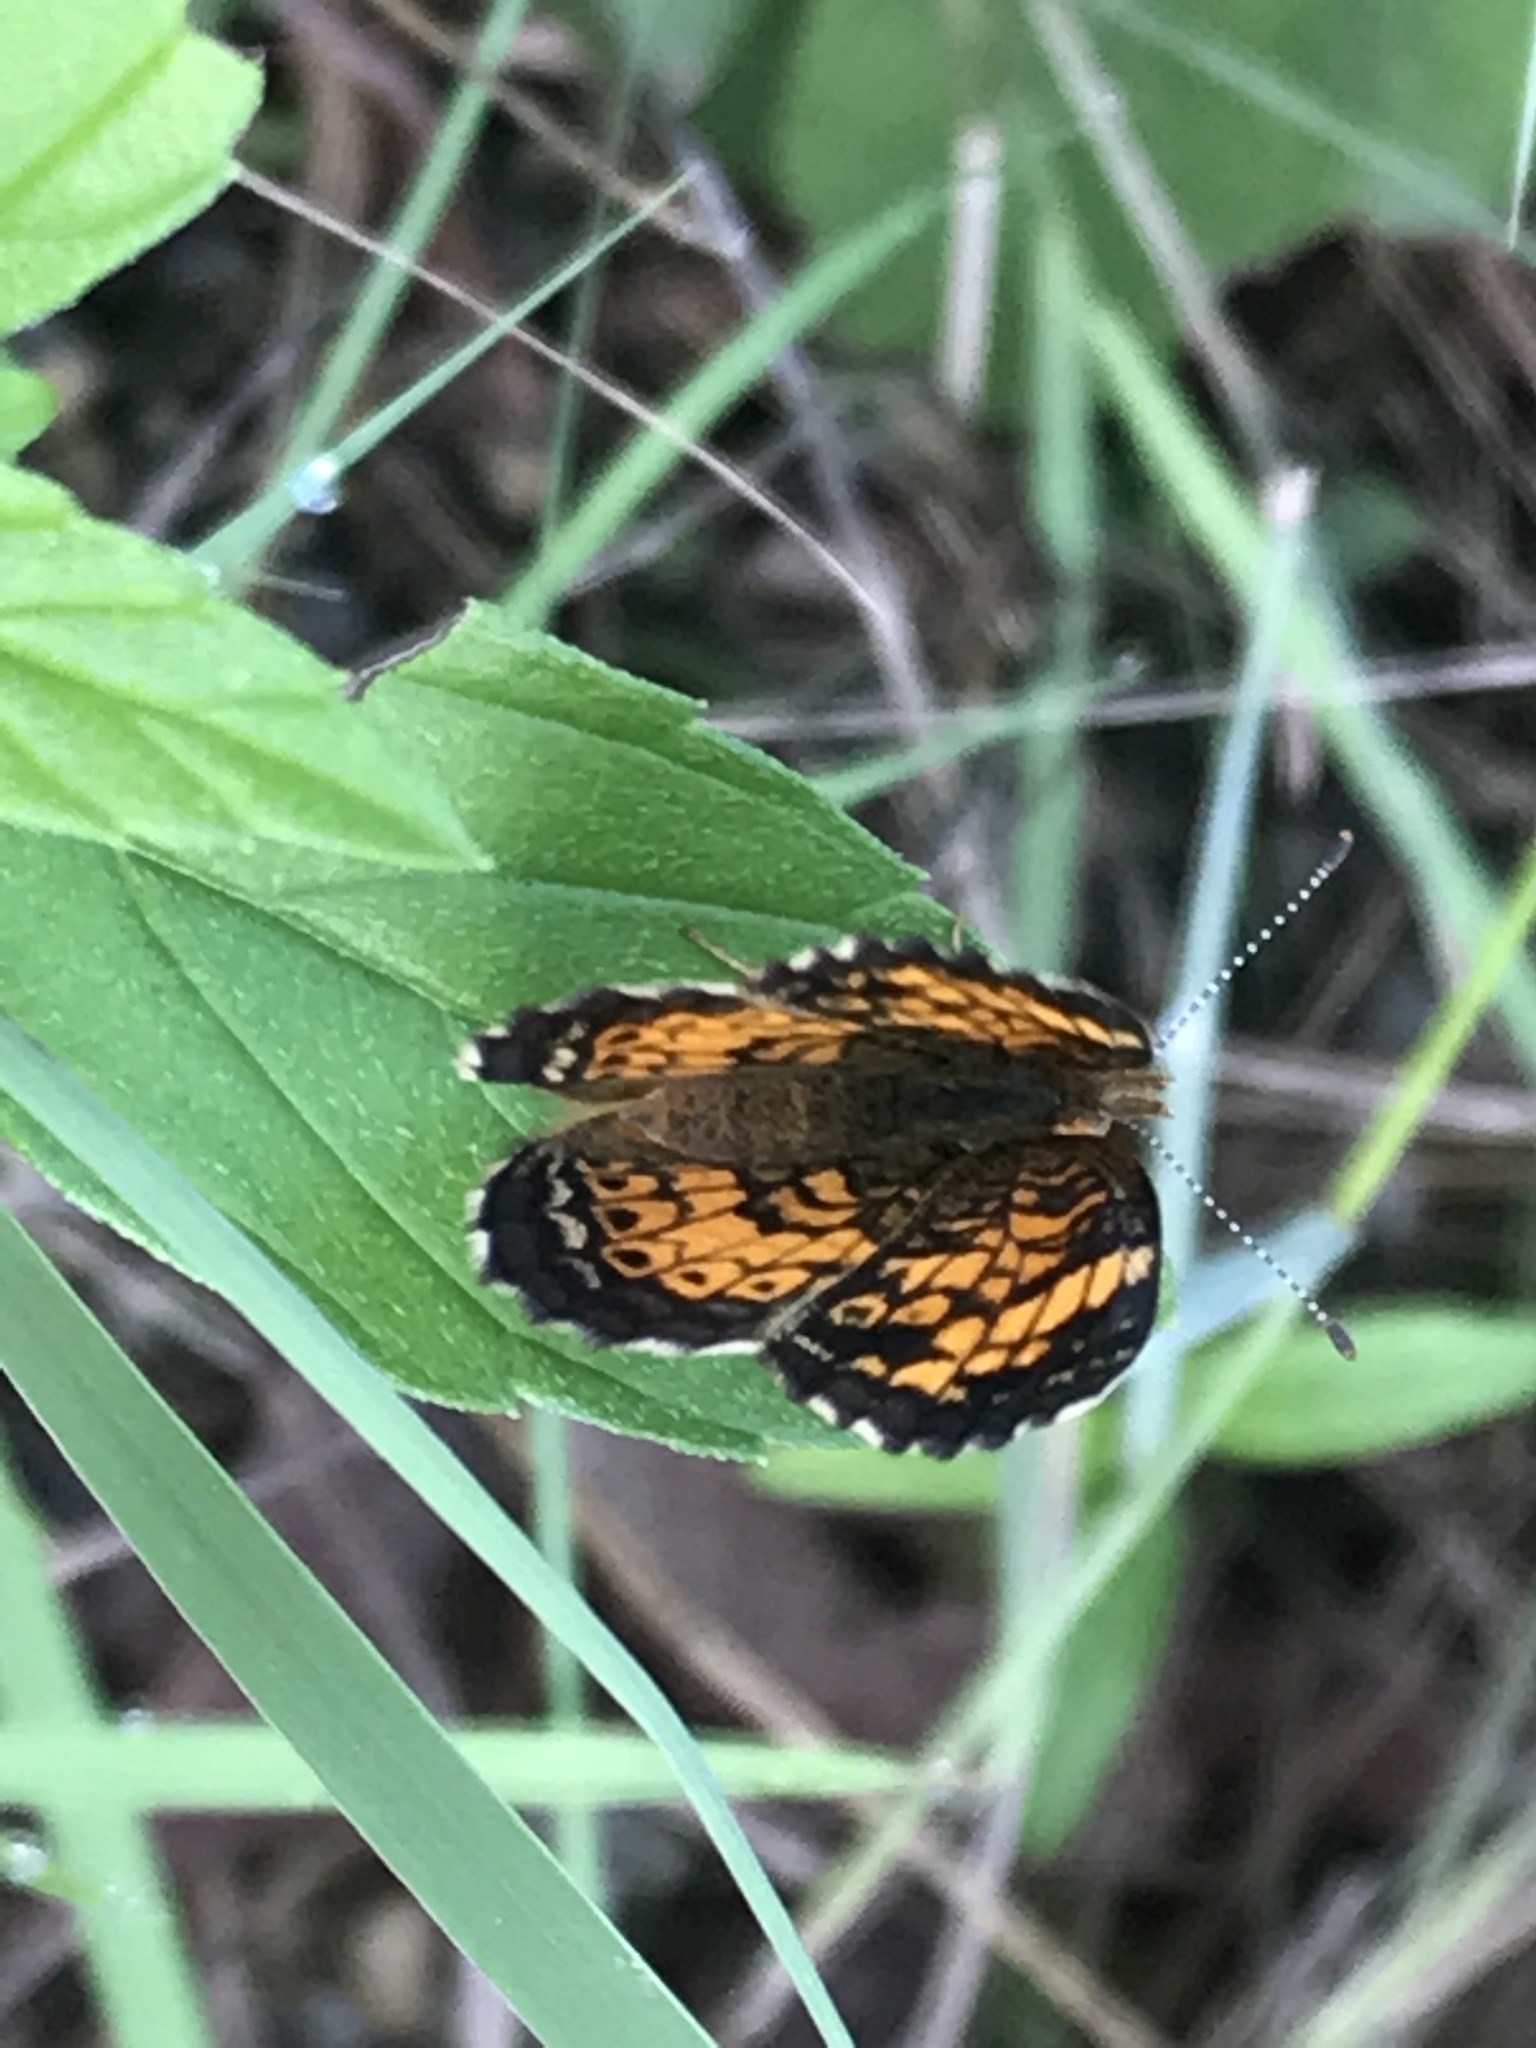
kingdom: Animalia
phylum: Arthropoda
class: Insecta
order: Lepidoptera
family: Nymphalidae
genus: Phyciodes
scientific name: Phyciodes tharos
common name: Pearl crescent
